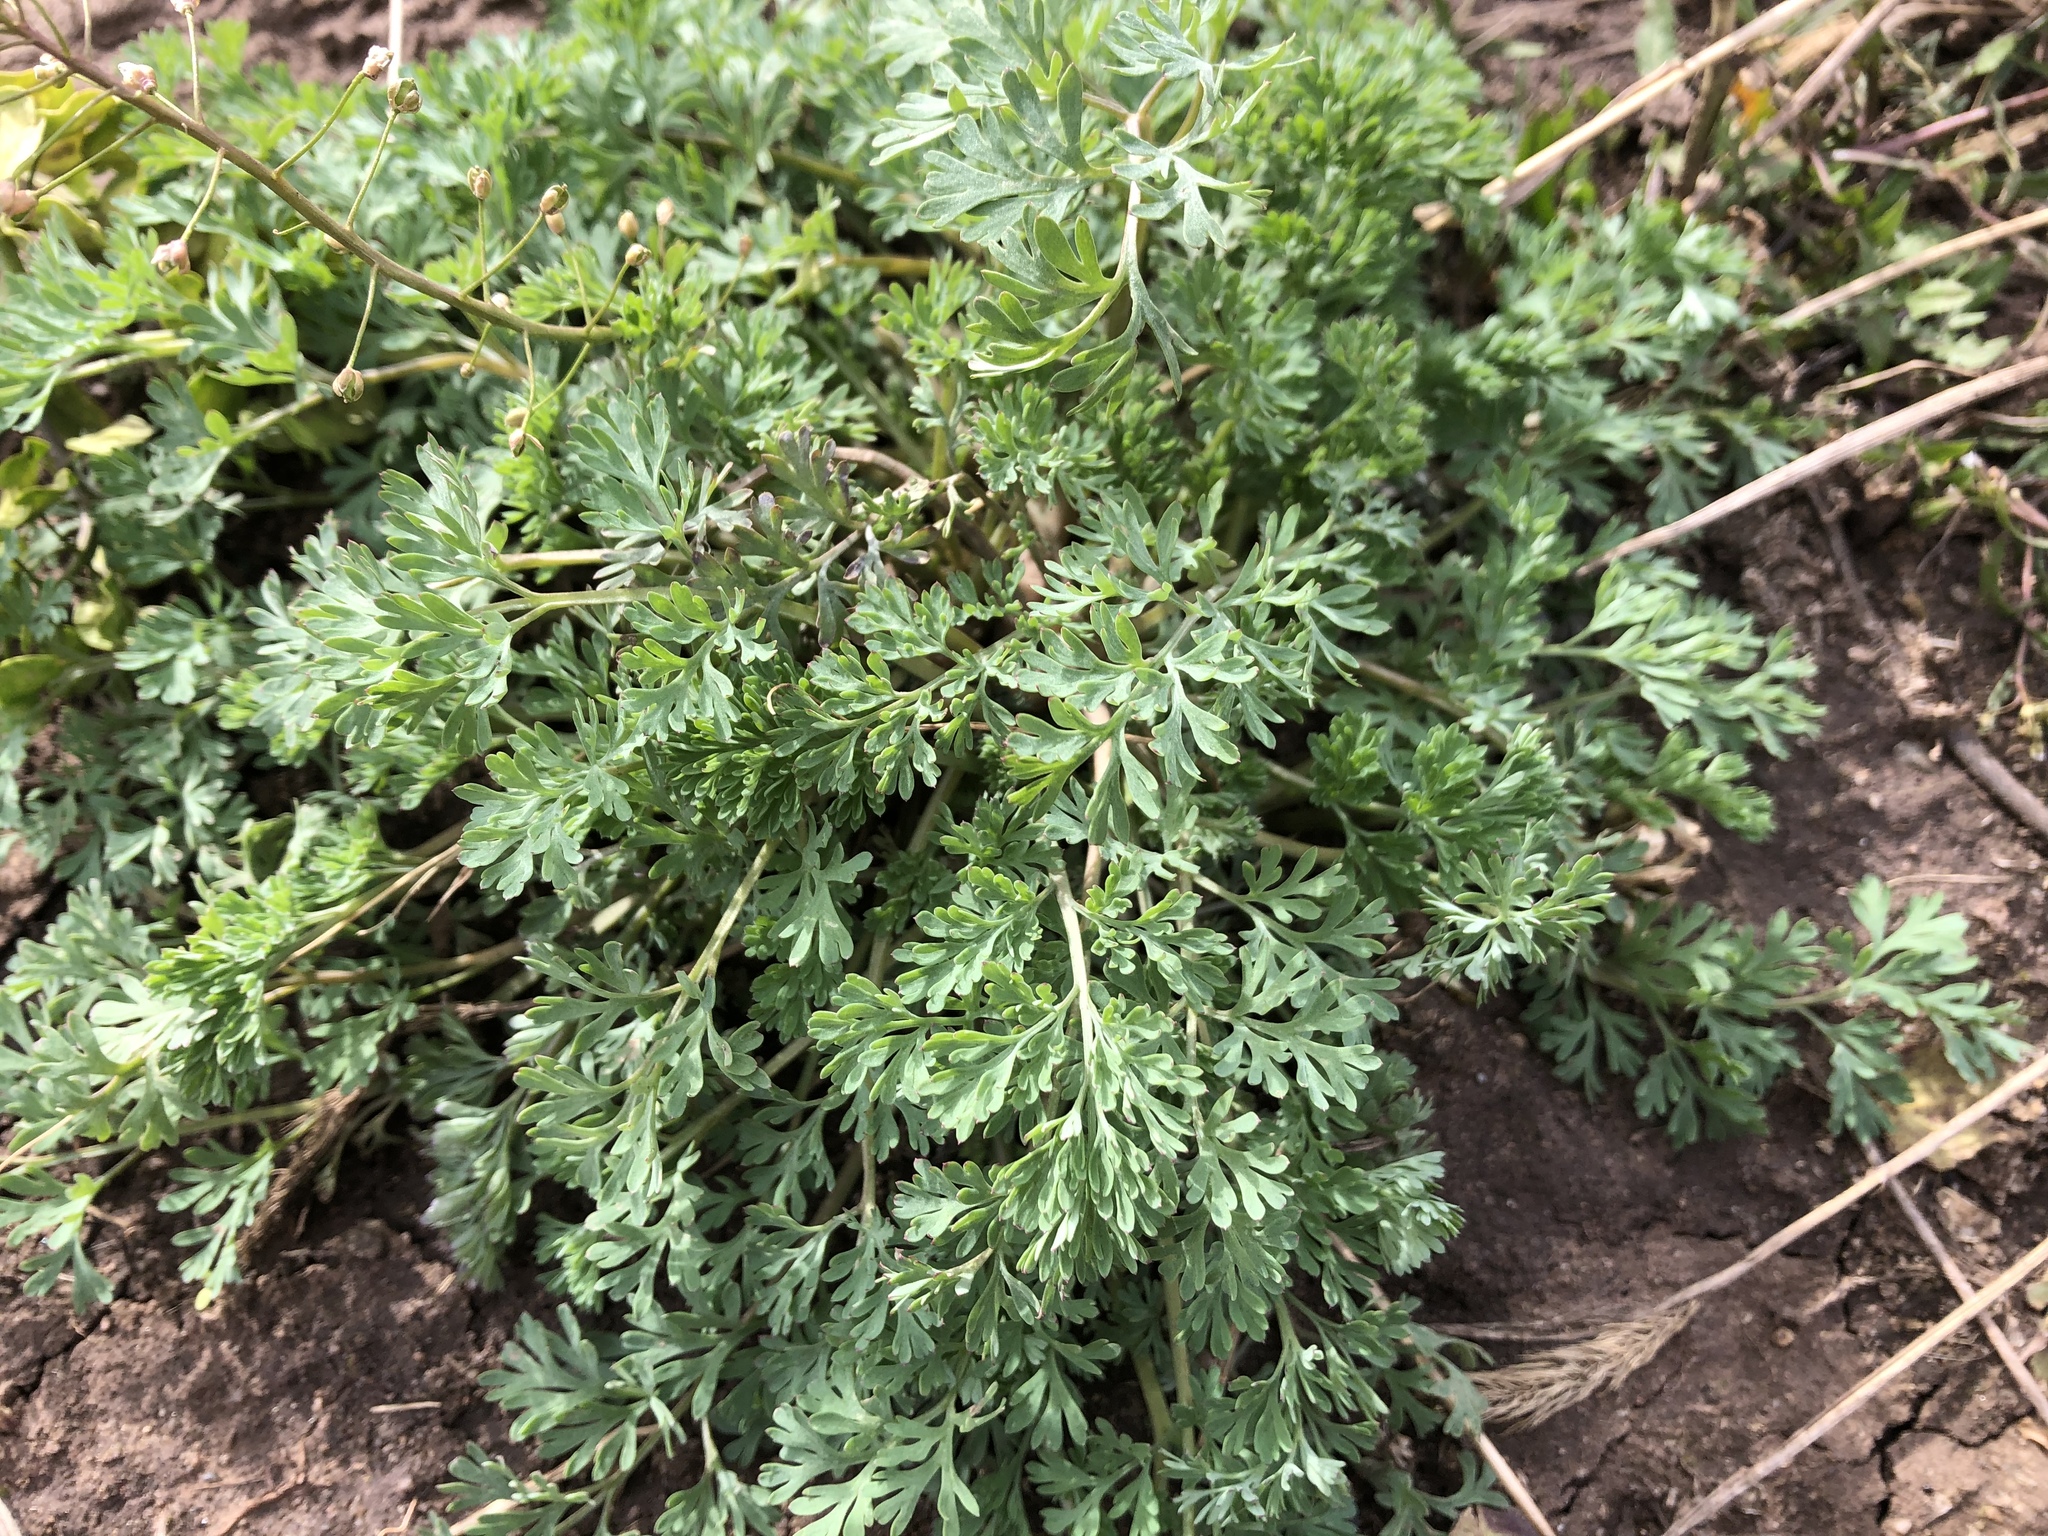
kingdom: Plantae
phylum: Tracheophyta
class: Magnoliopsida
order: Ranunculales
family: Papaveraceae
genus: Fumaria
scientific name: Fumaria officinalis
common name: Common fumitory
